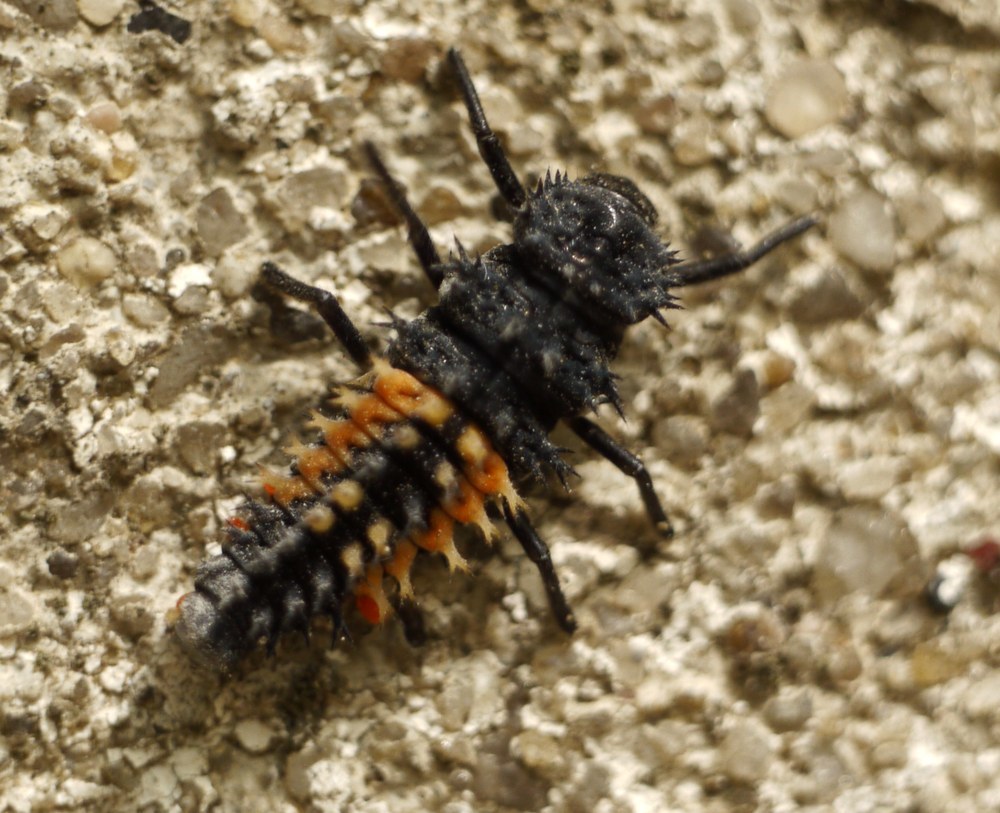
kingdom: Animalia
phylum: Arthropoda
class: Insecta
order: Coleoptera
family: Coccinellidae
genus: Harmonia
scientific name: Harmonia axyridis
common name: Harlequin ladybird
